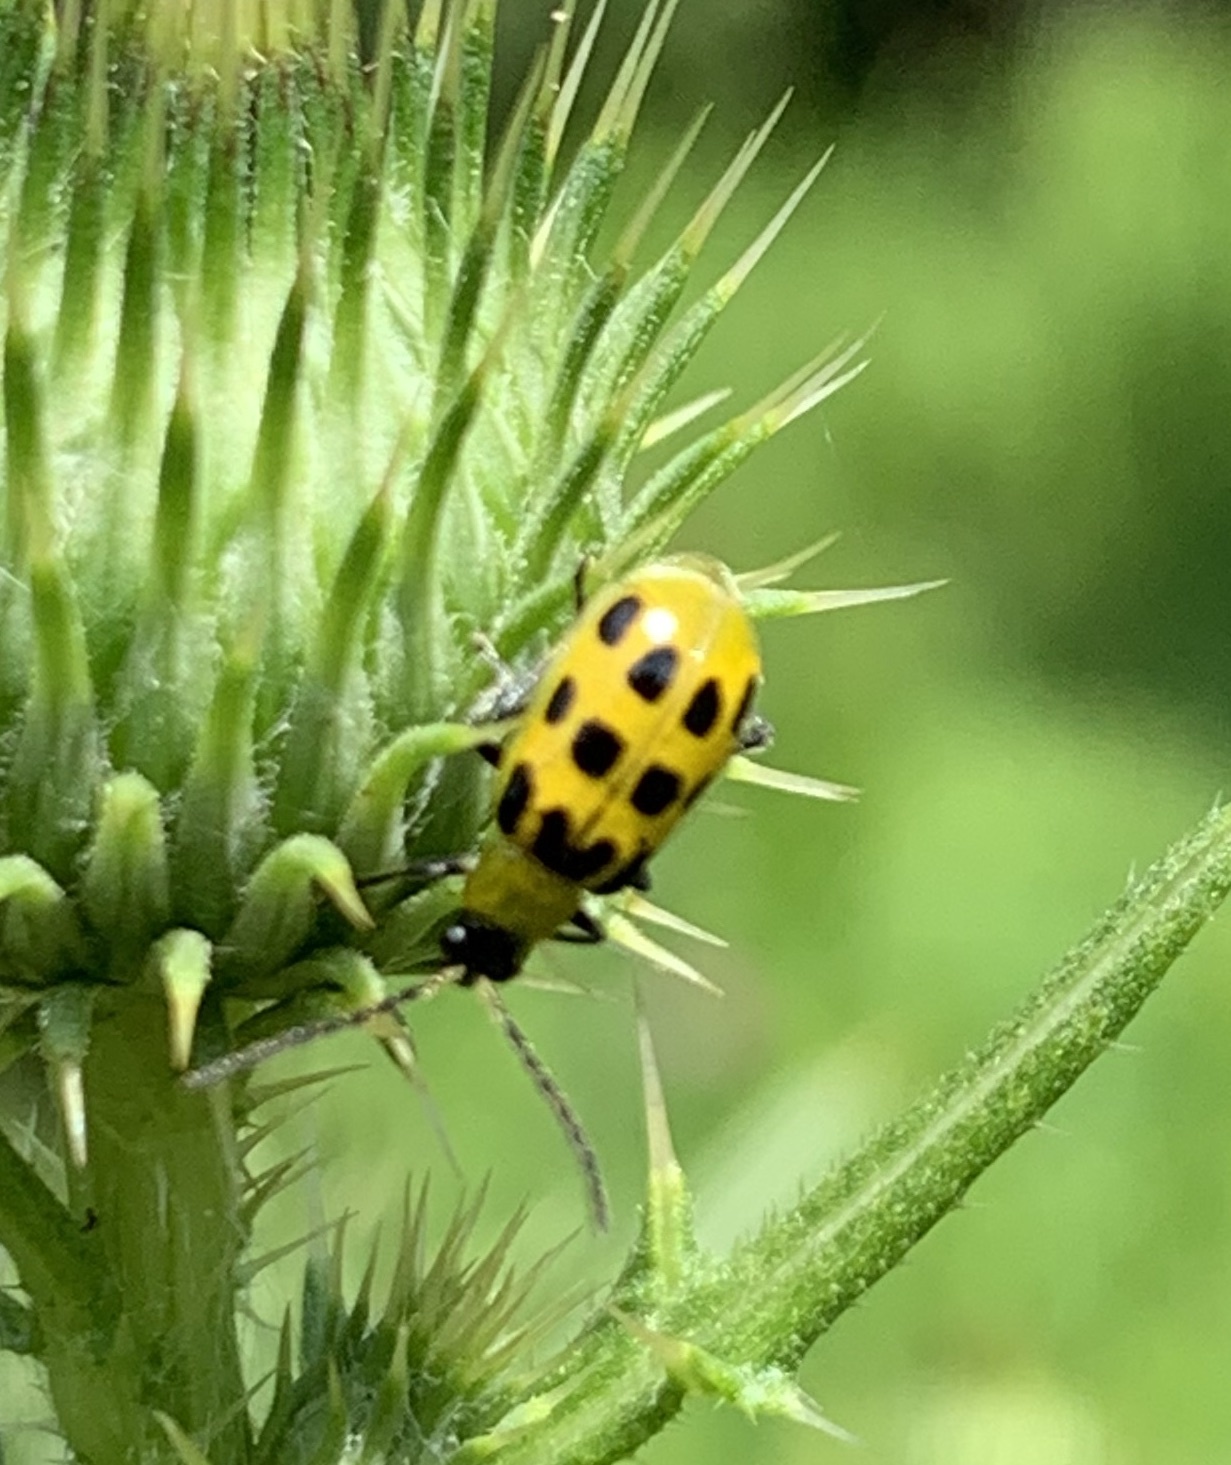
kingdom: Animalia
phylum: Arthropoda
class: Insecta
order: Coleoptera
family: Chrysomelidae
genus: Diabrotica
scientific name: Diabrotica undecimpunctata
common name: Spotted cucumber beetle
